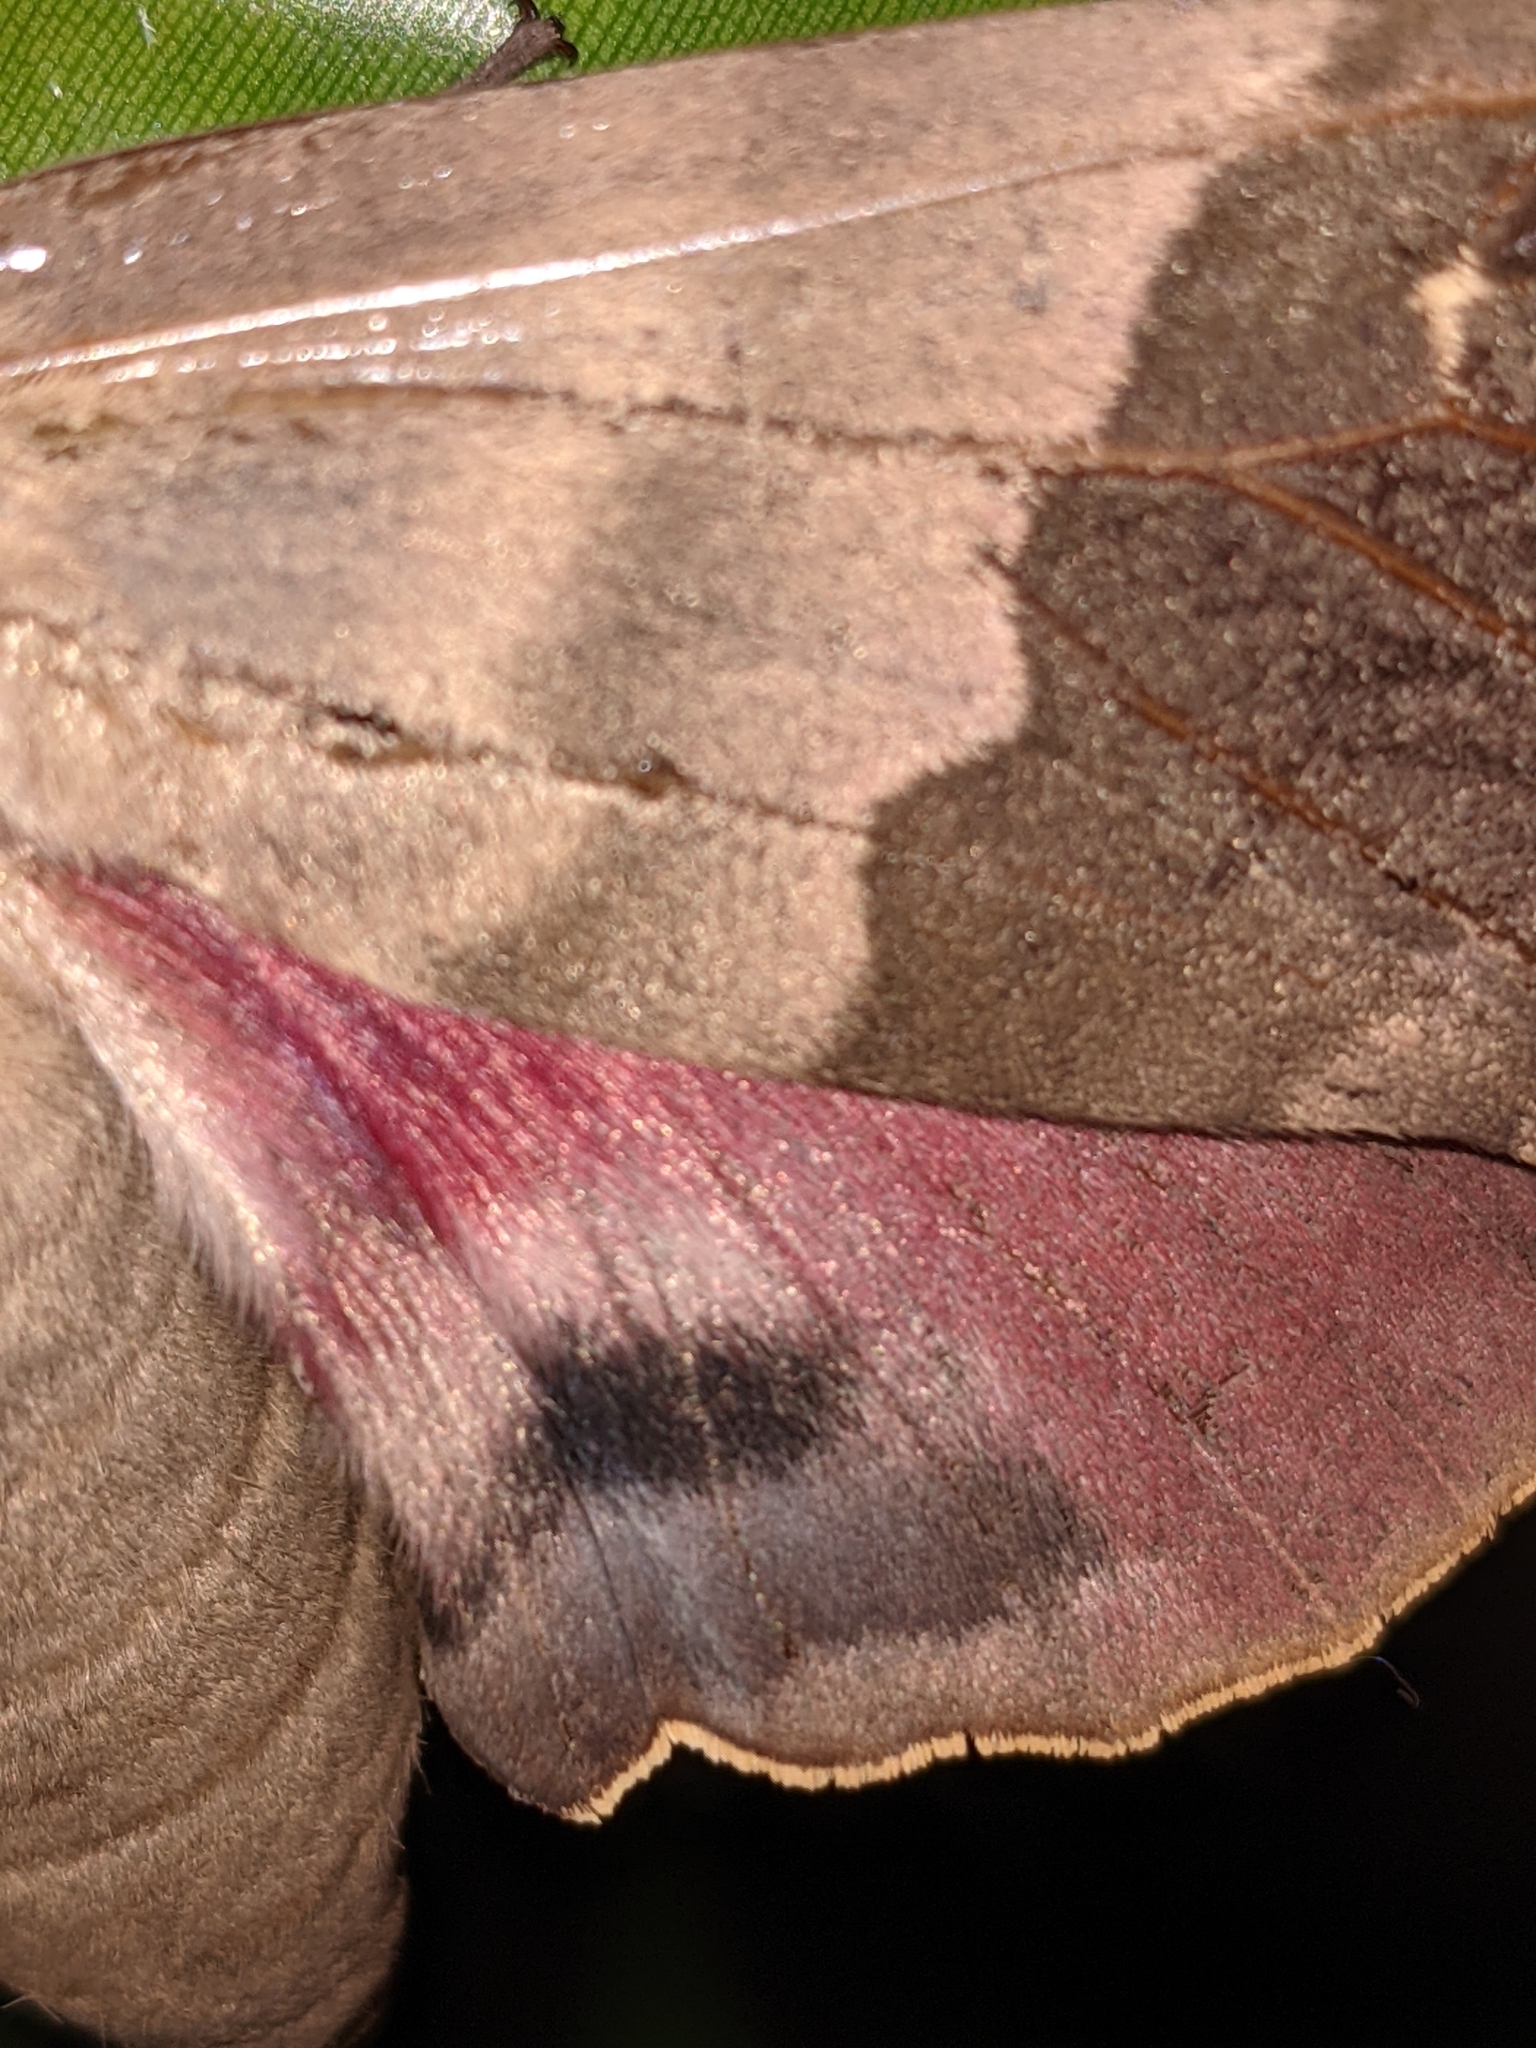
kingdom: Animalia
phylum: Arthropoda
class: Insecta
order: Lepidoptera
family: Sphingidae
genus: Pachysphinx
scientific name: Pachysphinx modesta
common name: Big poplar sphinx
